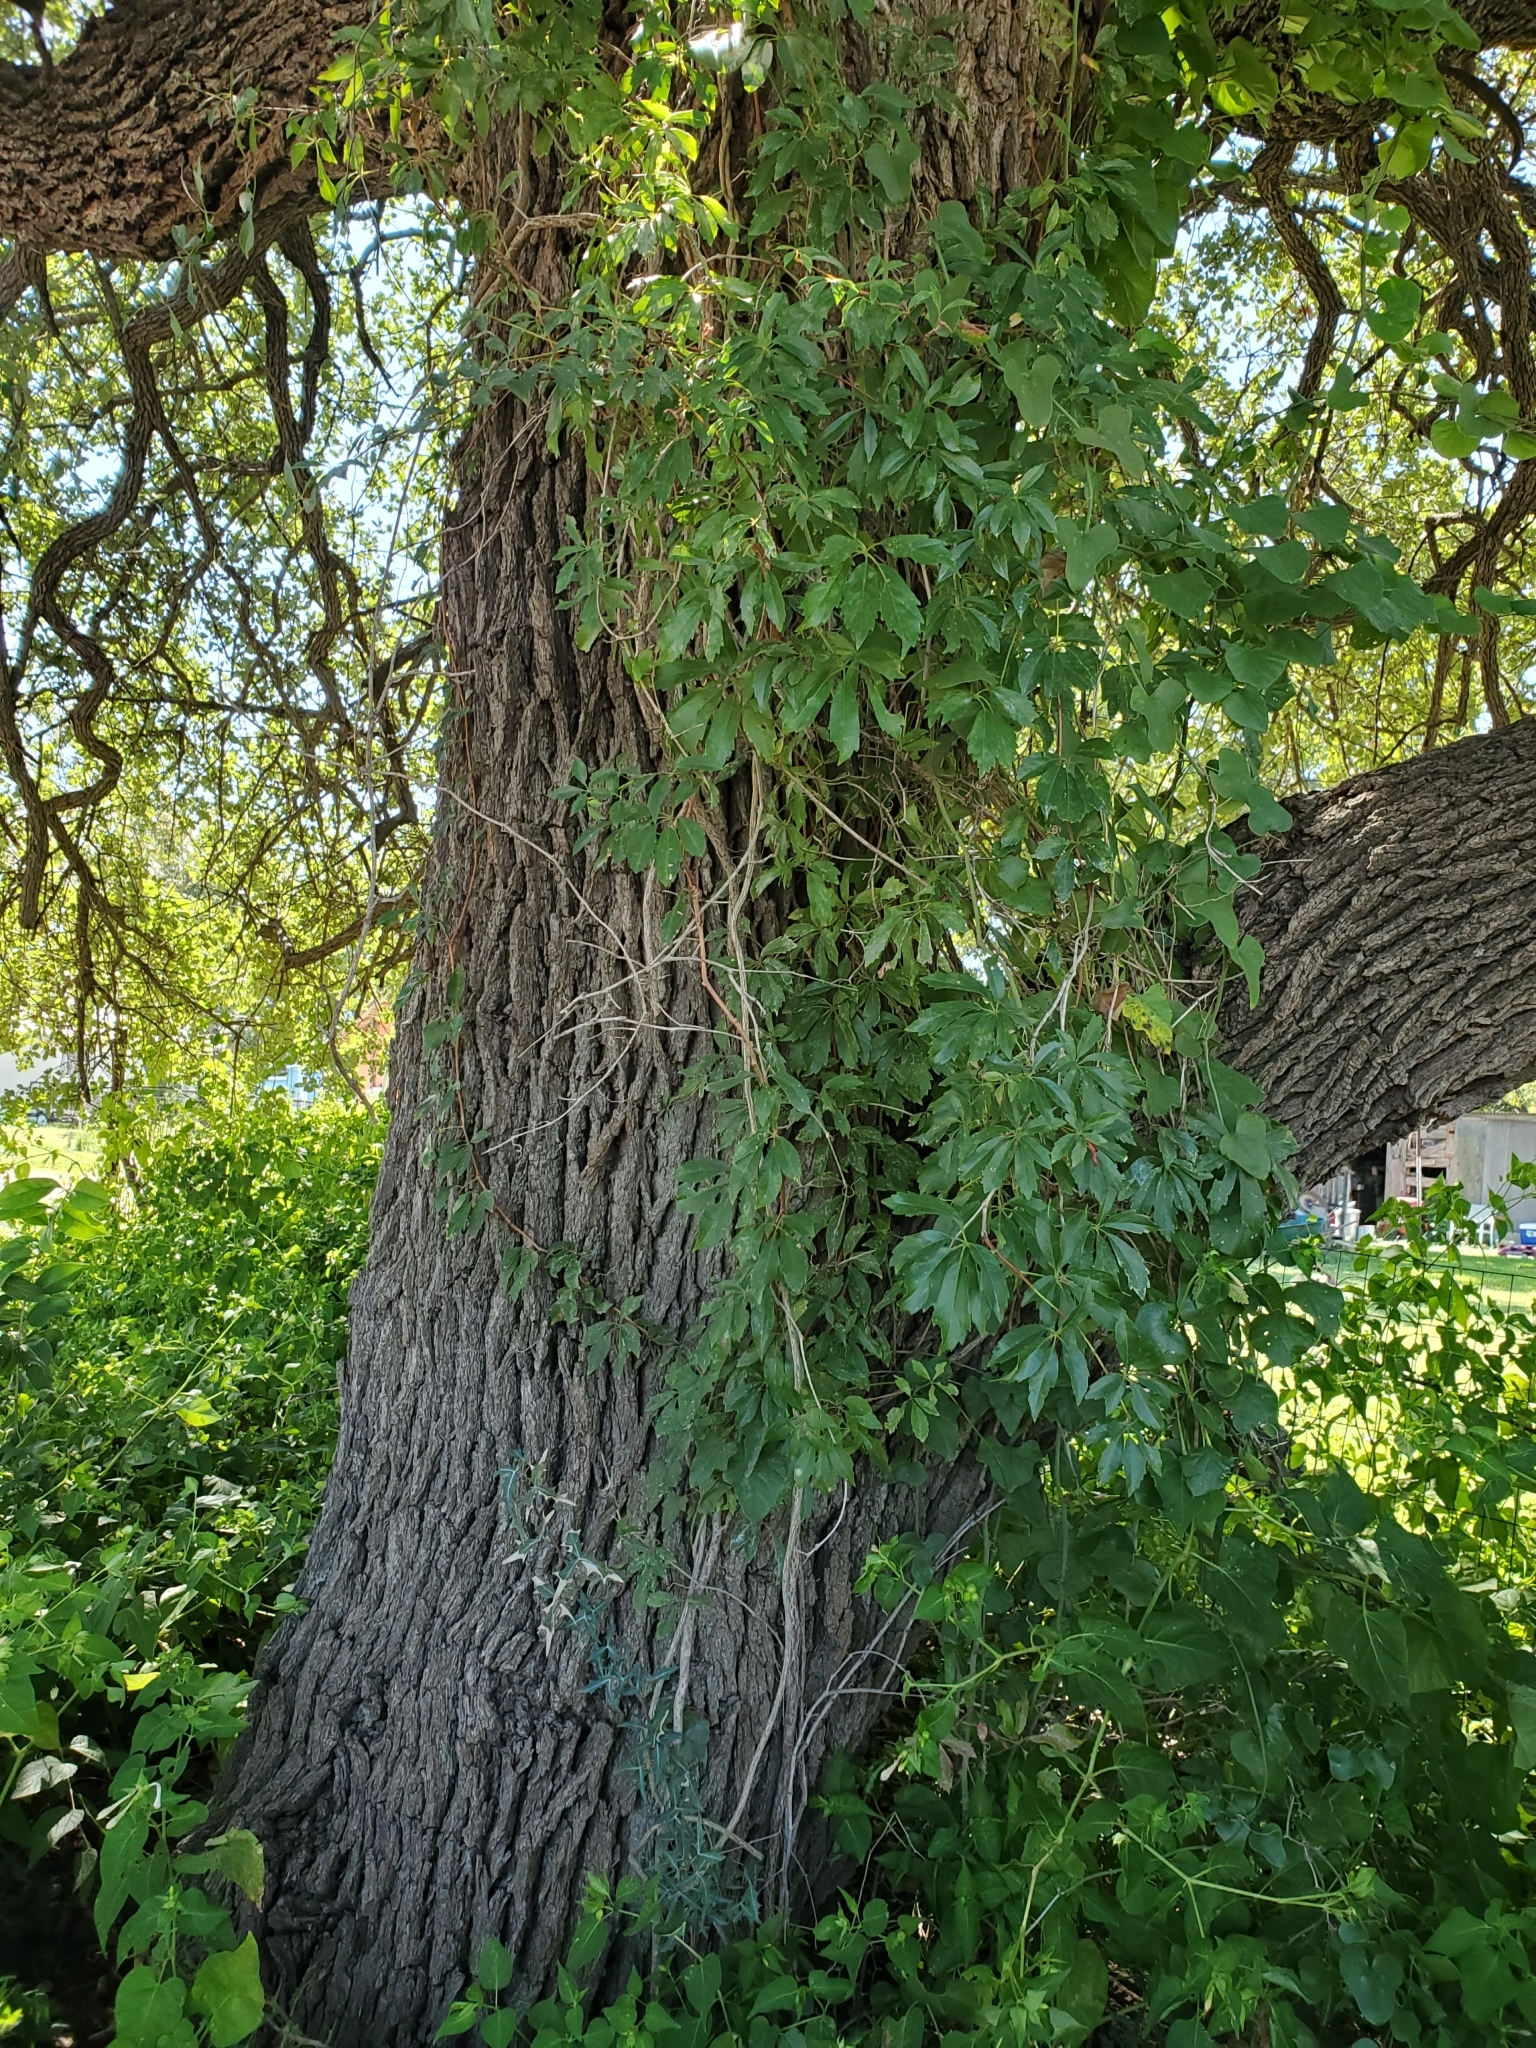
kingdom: Plantae
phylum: Tracheophyta
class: Magnoliopsida
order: Vitales
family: Vitaceae
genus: Parthenocissus
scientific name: Parthenocissus heptaphylla
